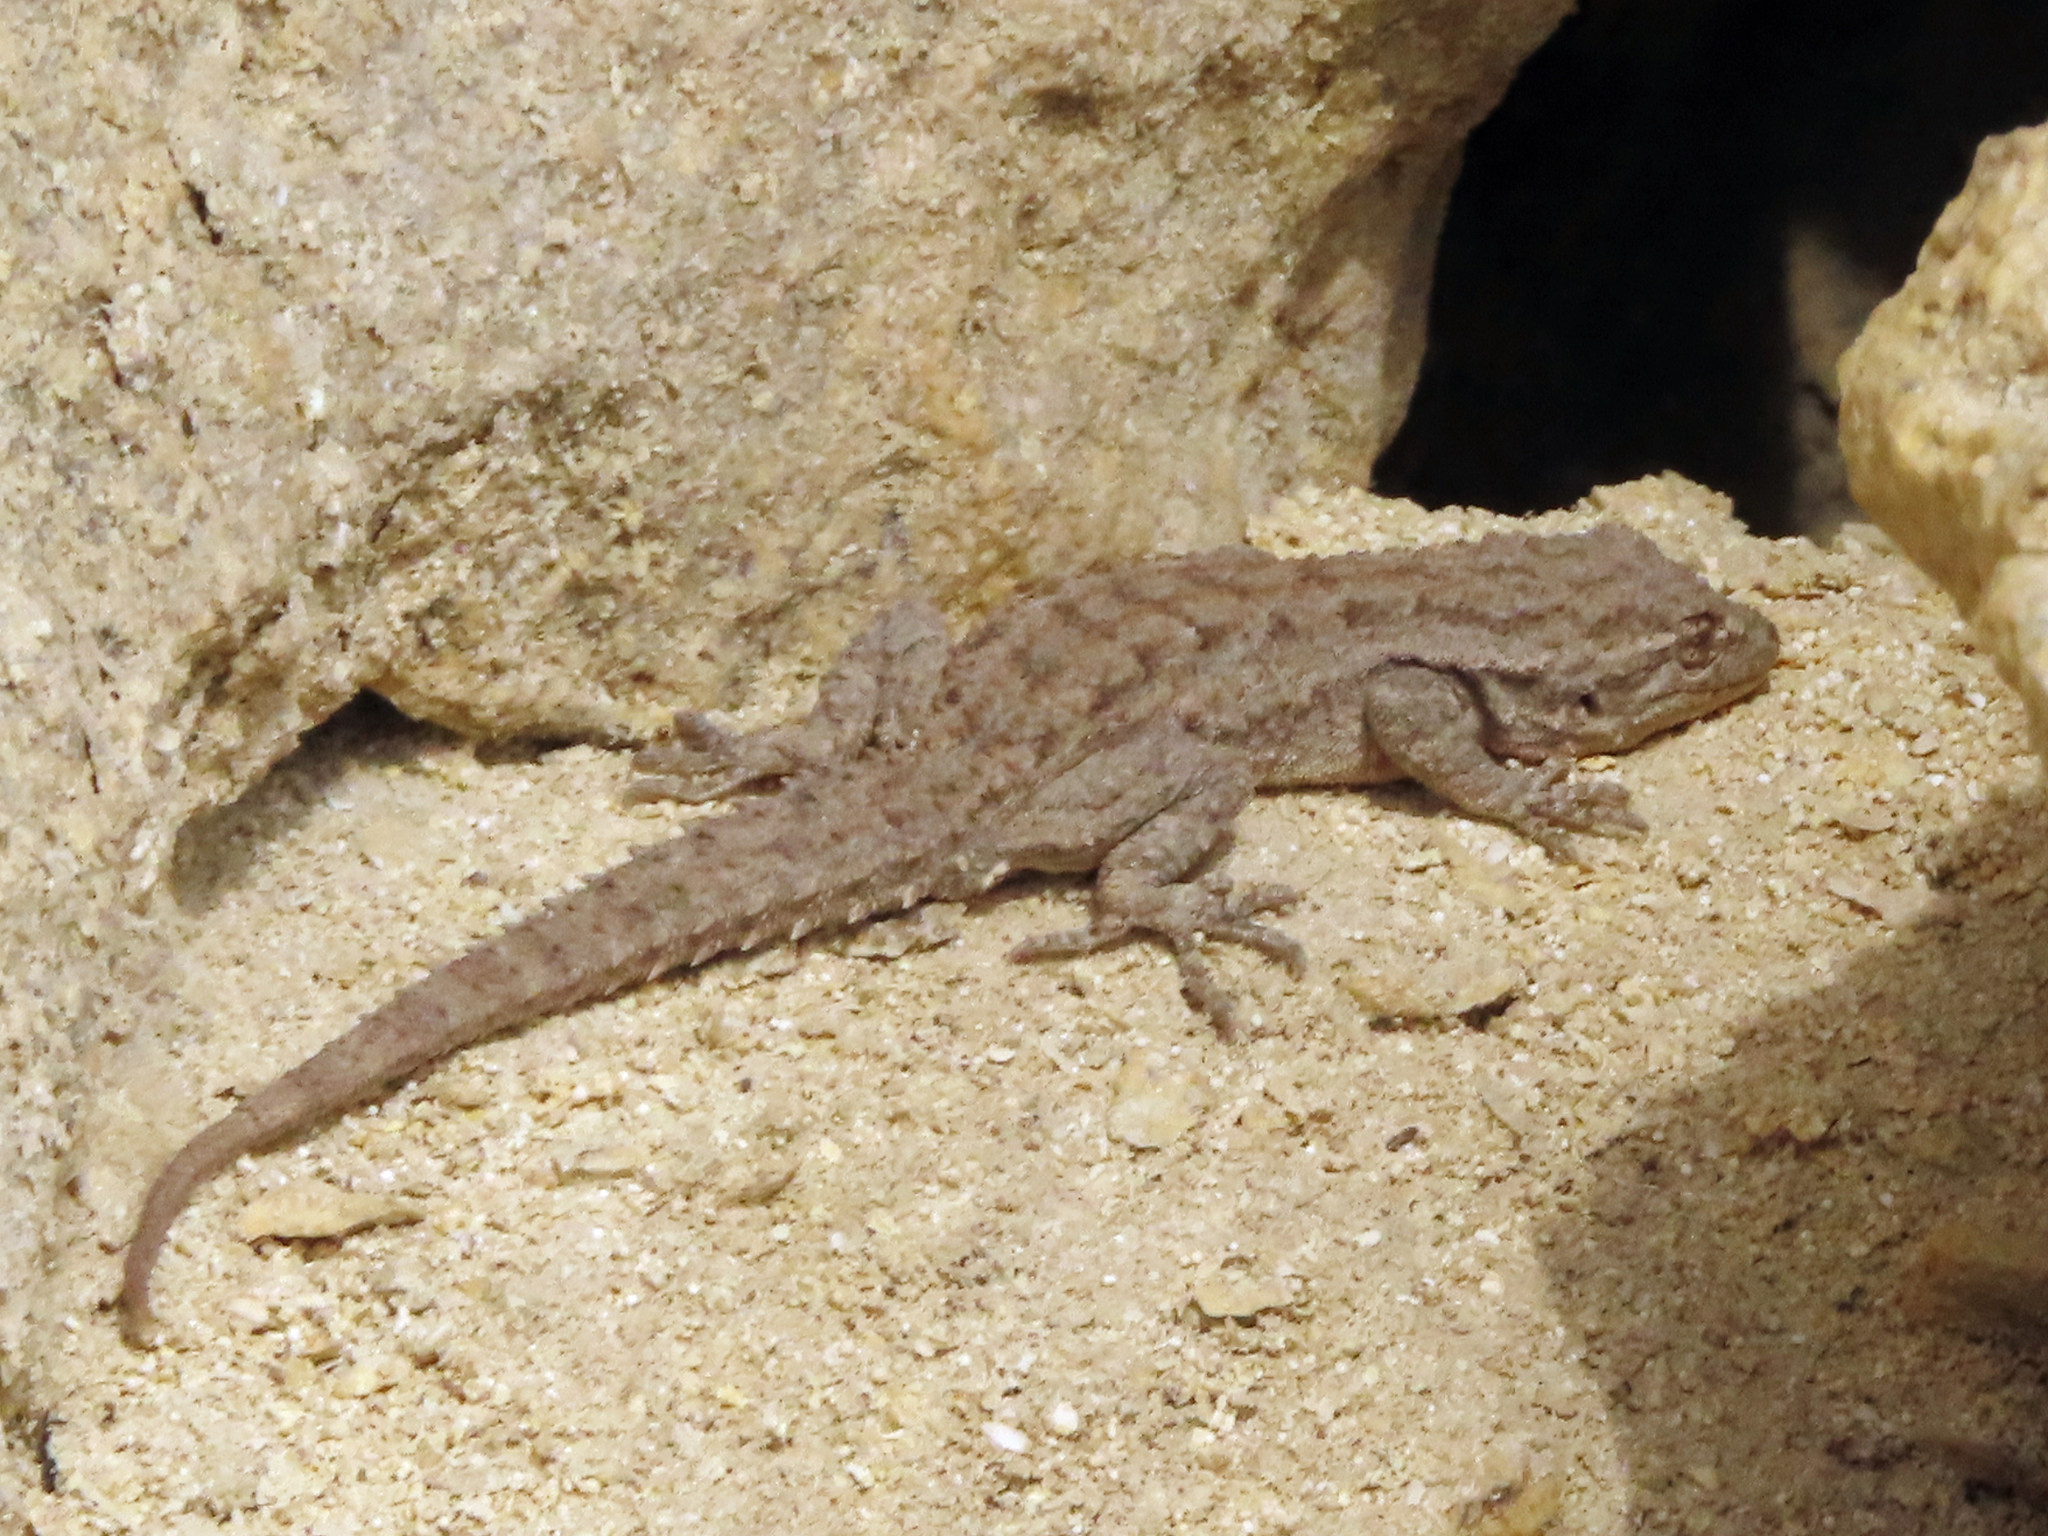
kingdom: Animalia
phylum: Chordata
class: Squamata
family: Gekkonidae
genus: Mediodactylus
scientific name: Mediodactylus russowii
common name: Grey thin-toed gecko
